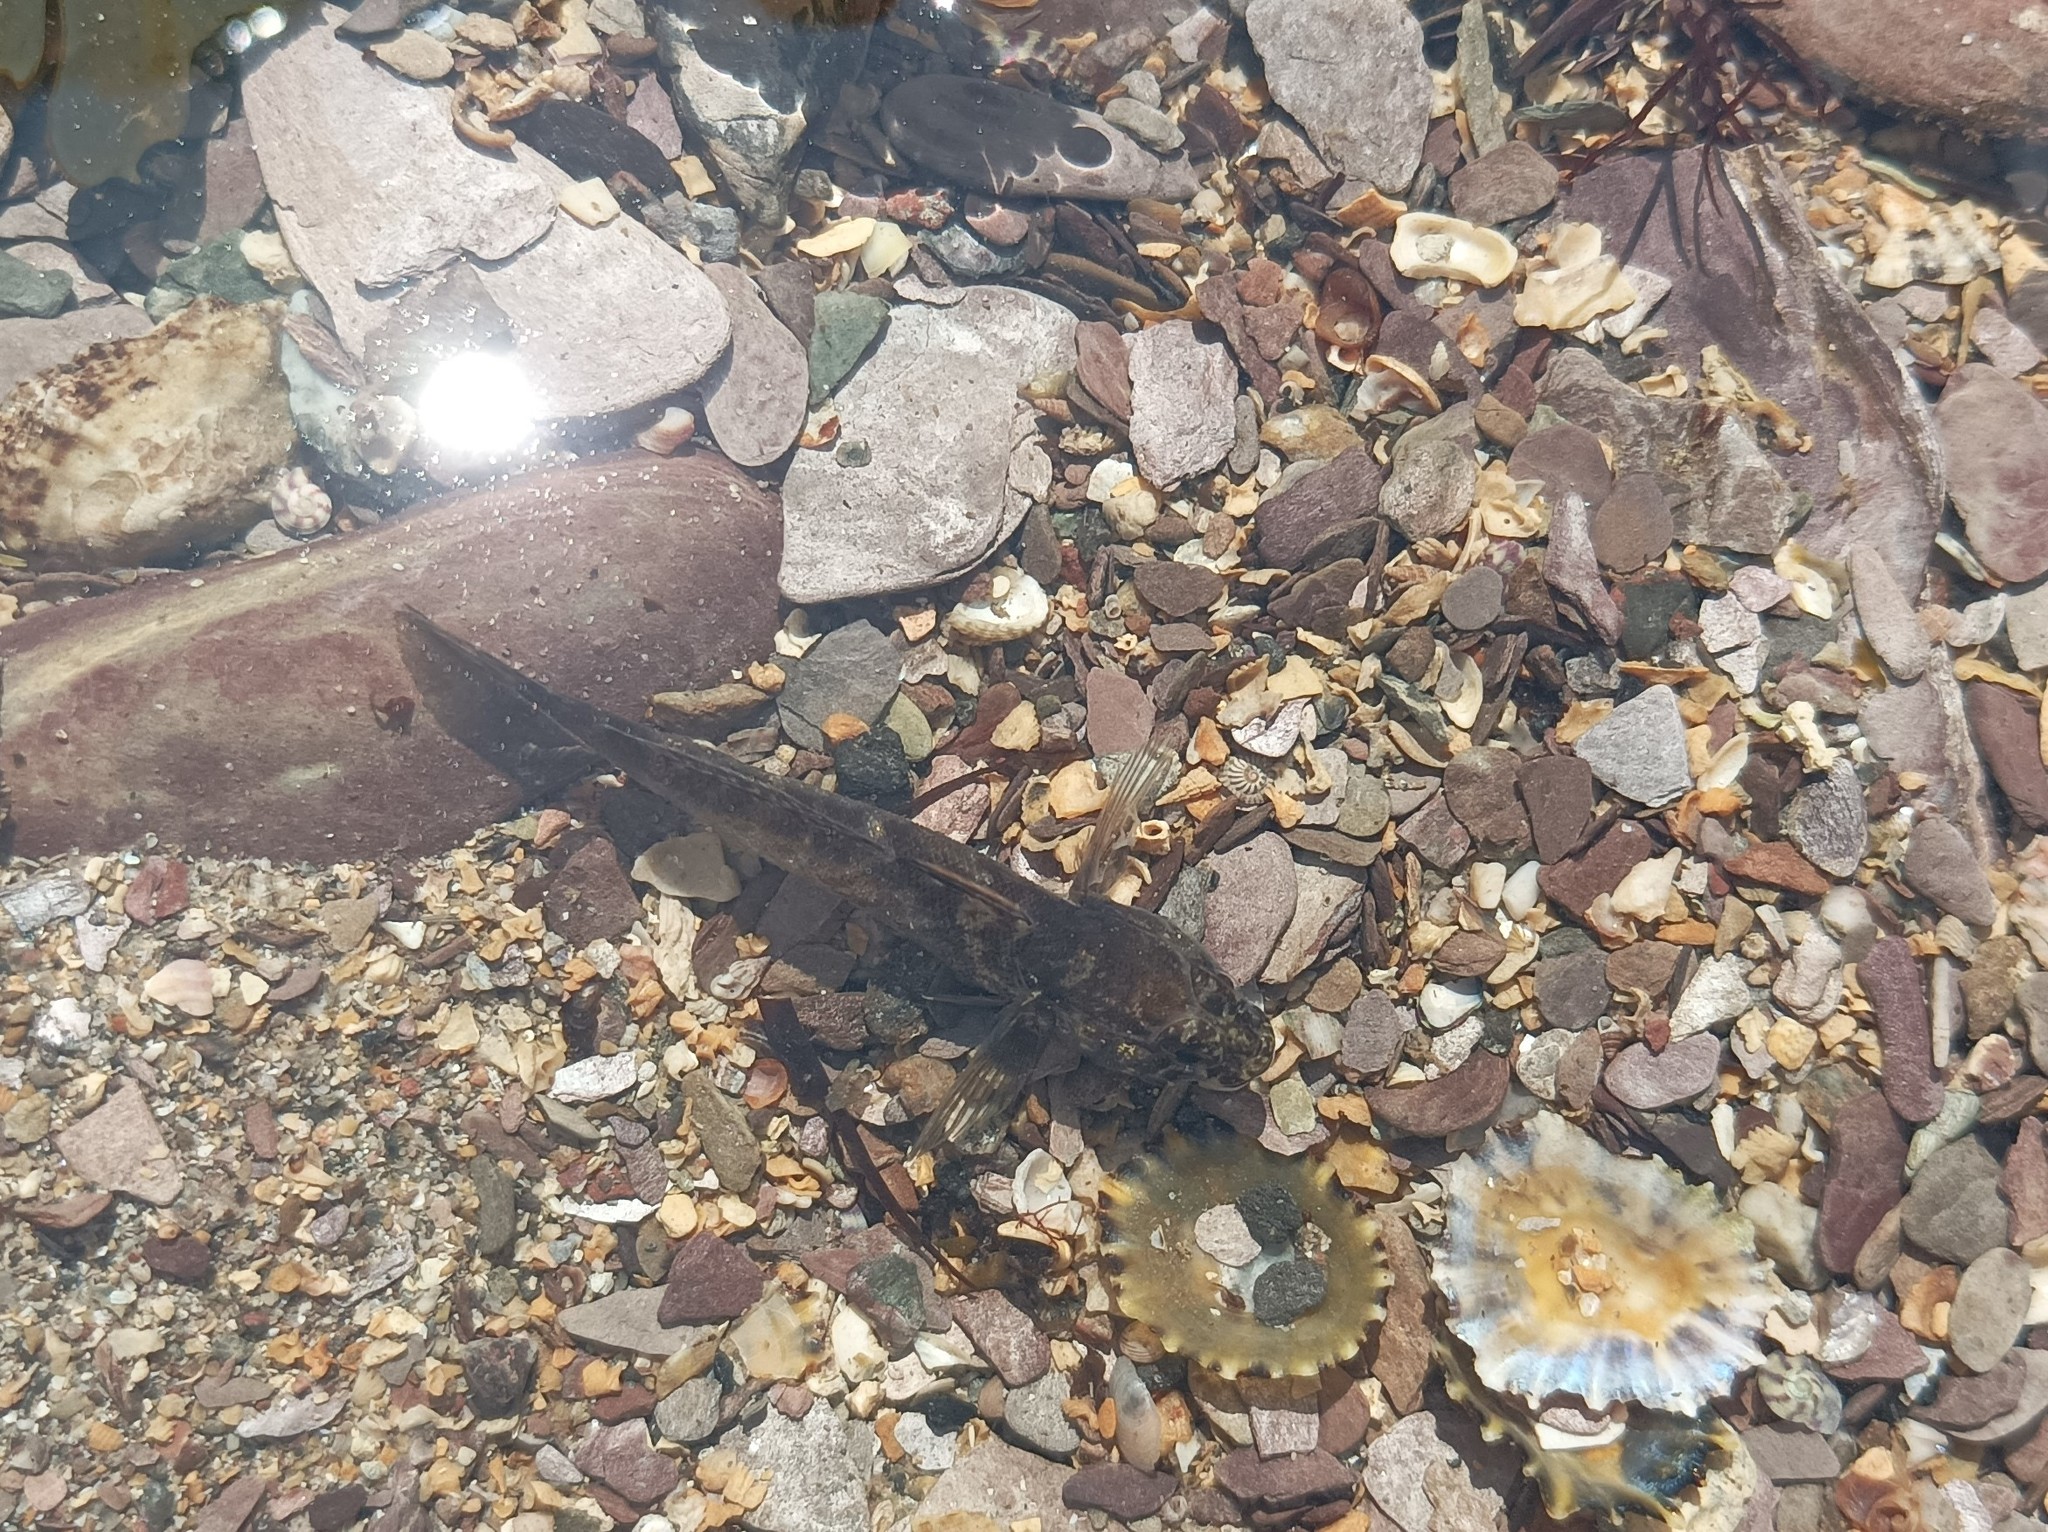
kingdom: Animalia
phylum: Chordata
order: Perciformes
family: Gobiidae
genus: Gobius
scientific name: Gobius paganellus
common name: Rock goby
